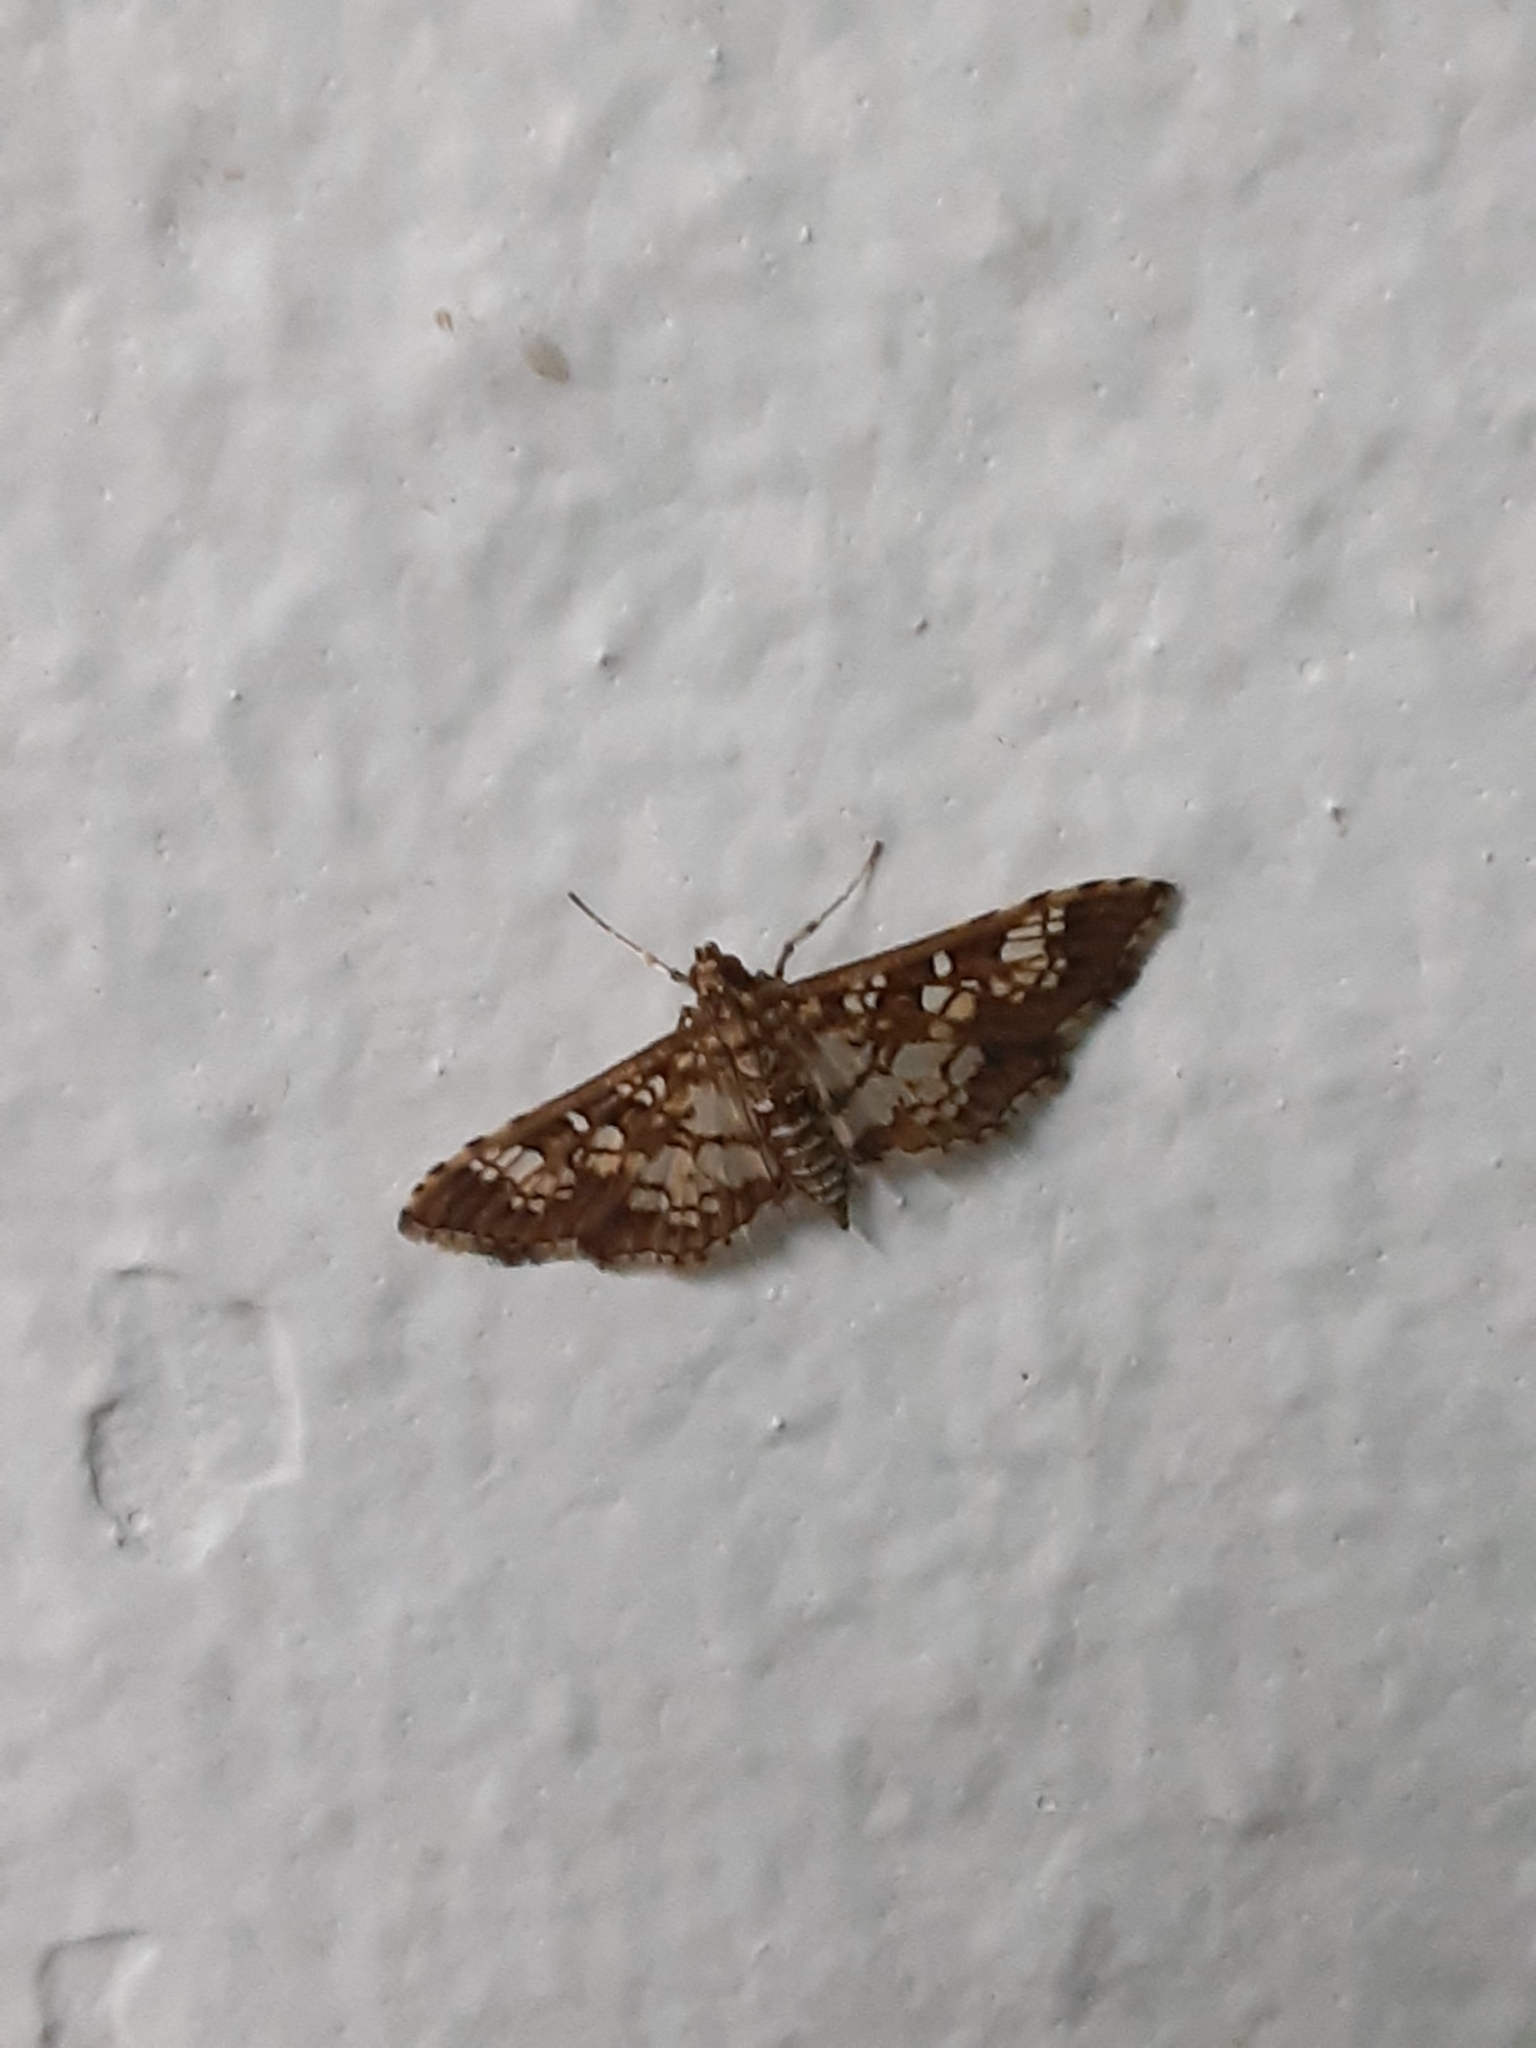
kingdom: Animalia
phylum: Arthropoda
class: Insecta
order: Lepidoptera
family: Crambidae
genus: Samea
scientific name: Samea ecclesialis
